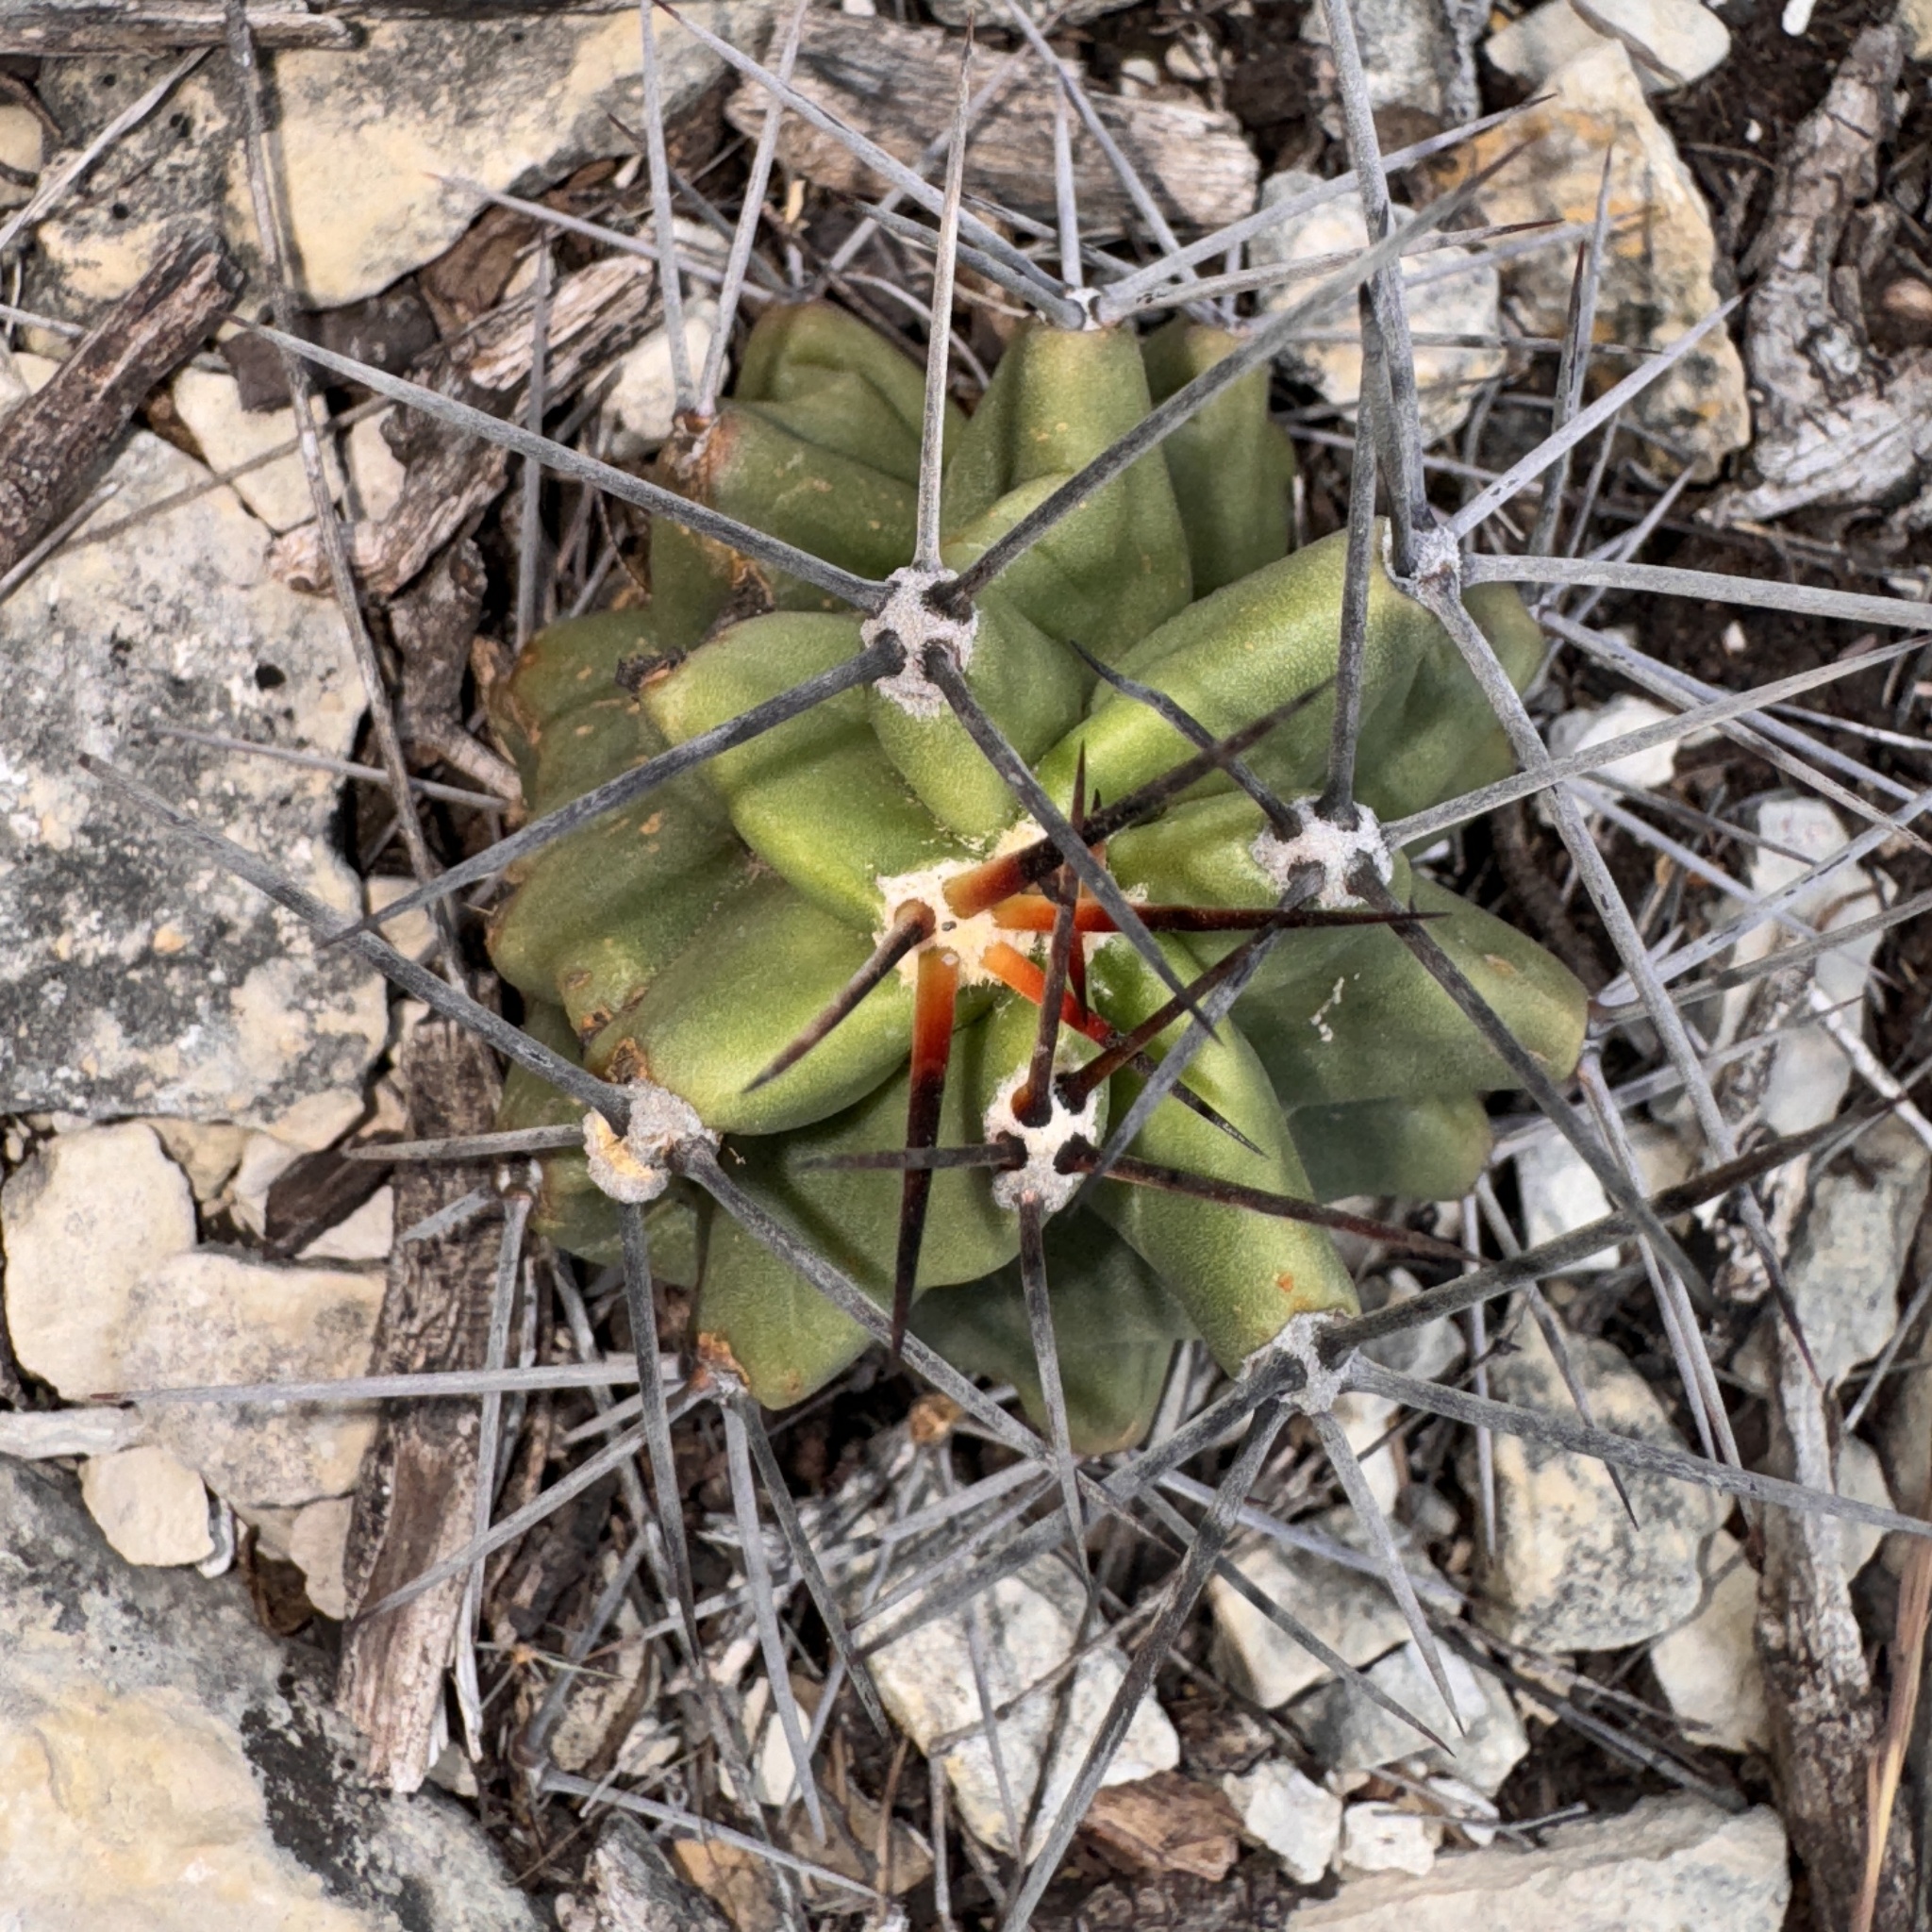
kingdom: Plantae
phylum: Tracheophyta
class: Magnoliopsida
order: Caryophyllales
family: Cactaceae
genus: Echinocereus
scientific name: Echinocereus coccineus
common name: Scarlet hedgehog cactus
